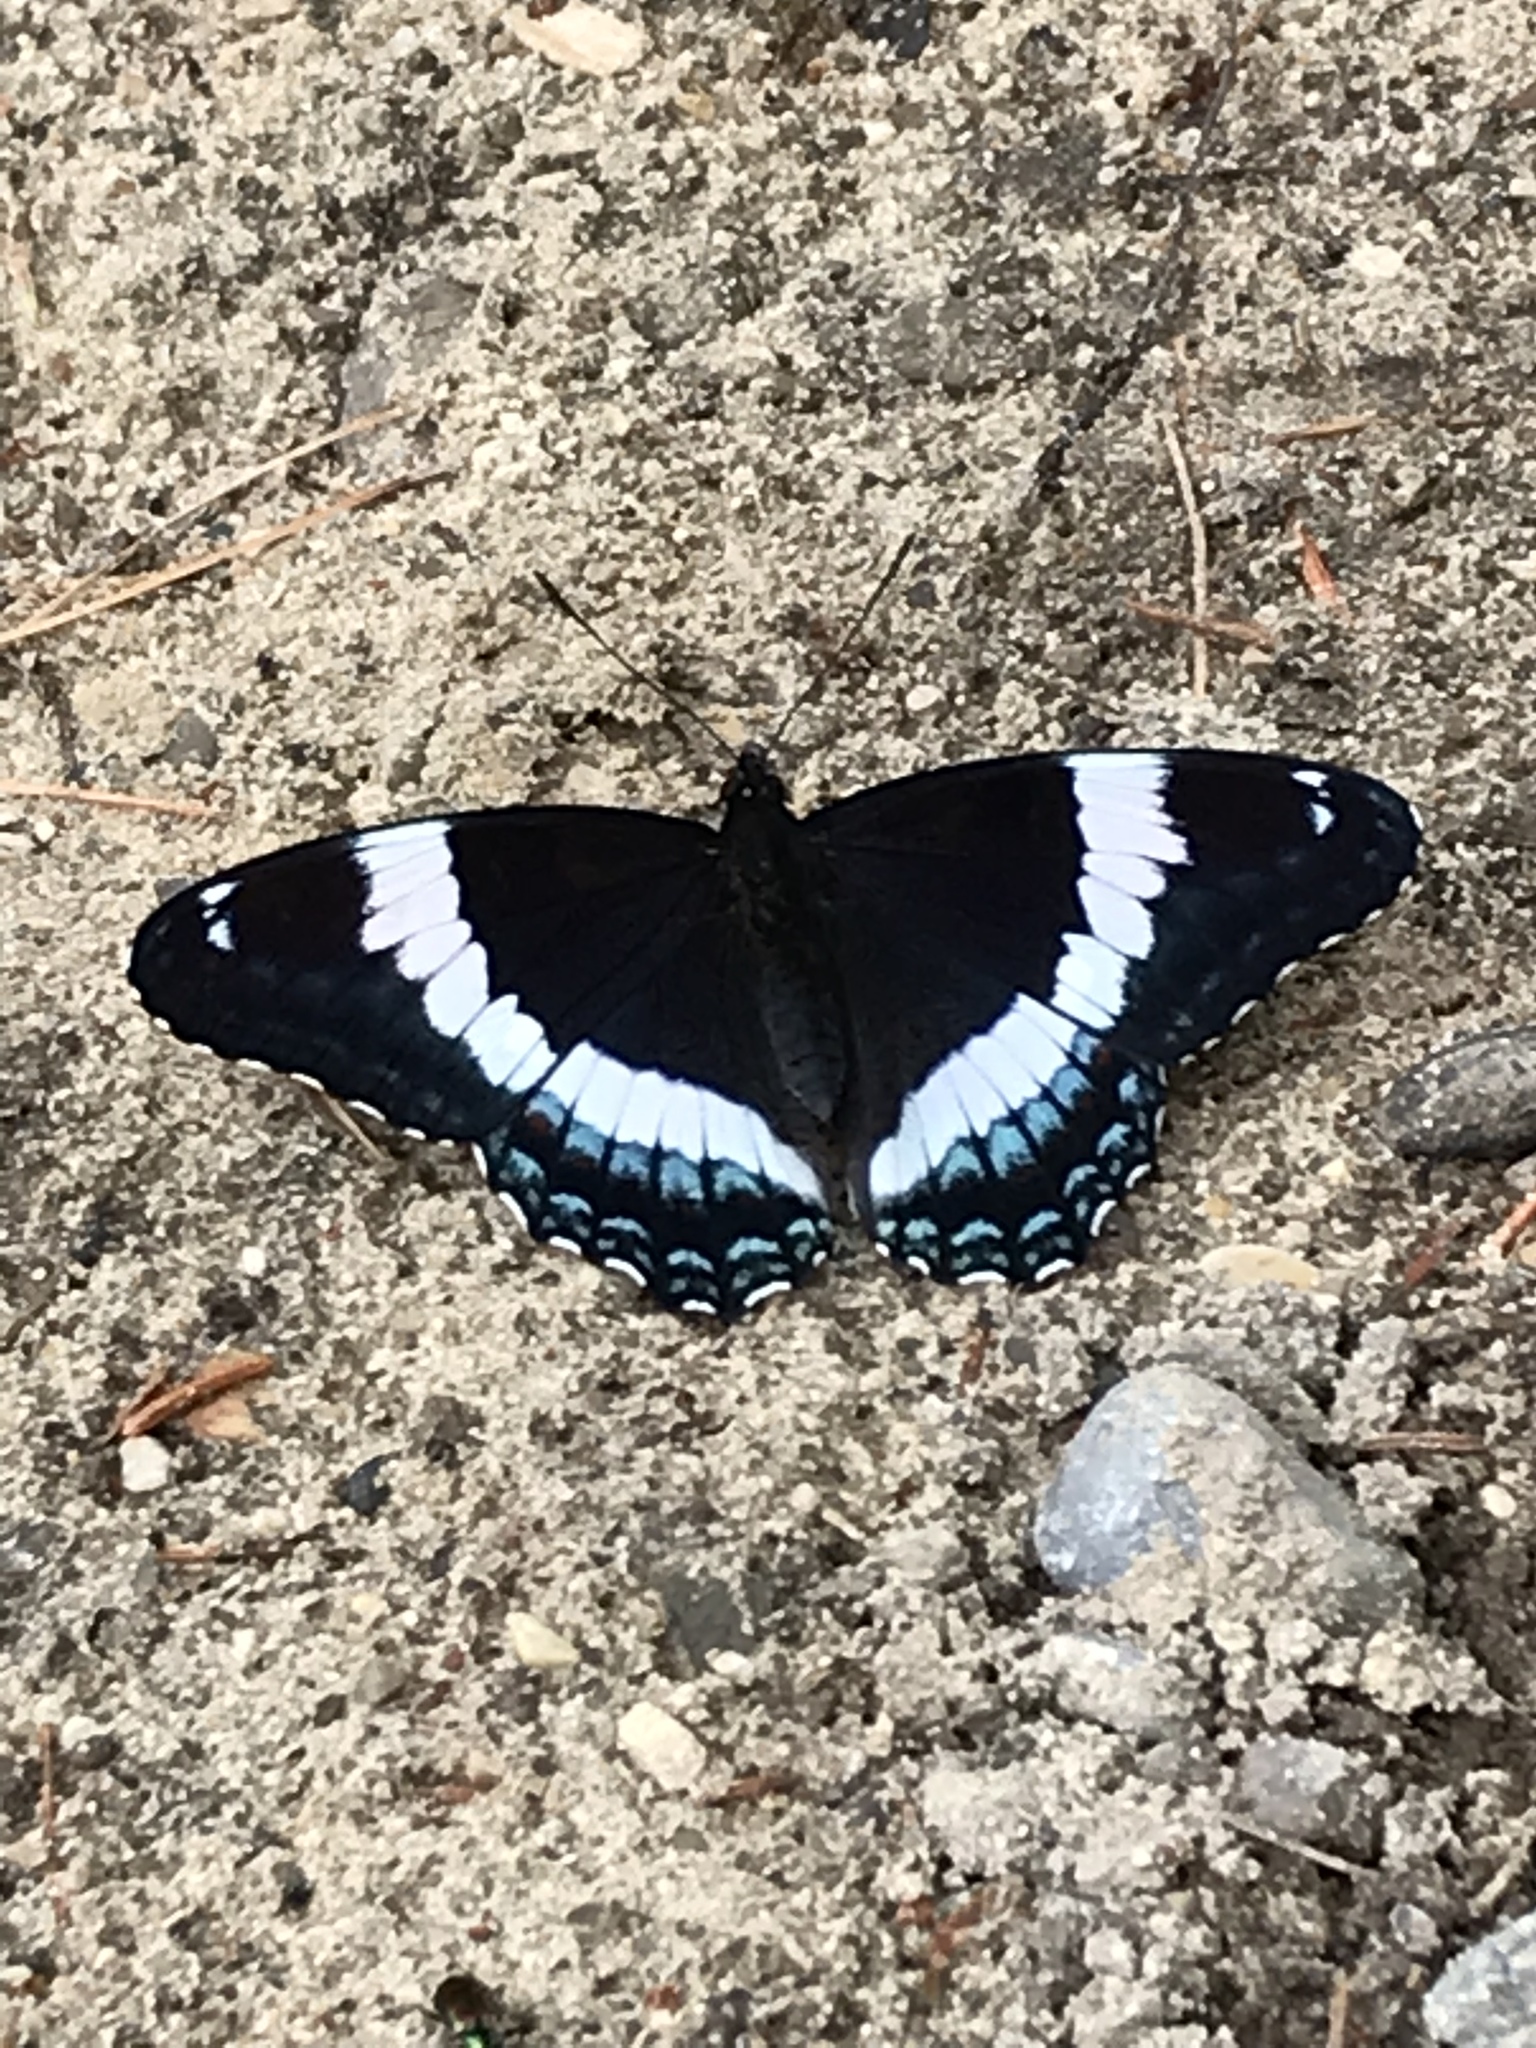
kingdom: Animalia
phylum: Arthropoda
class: Insecta
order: Lepidoptera
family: Nymphalidae
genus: Limenitis
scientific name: Limenitis arthemis
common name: Red-spotted admiral
